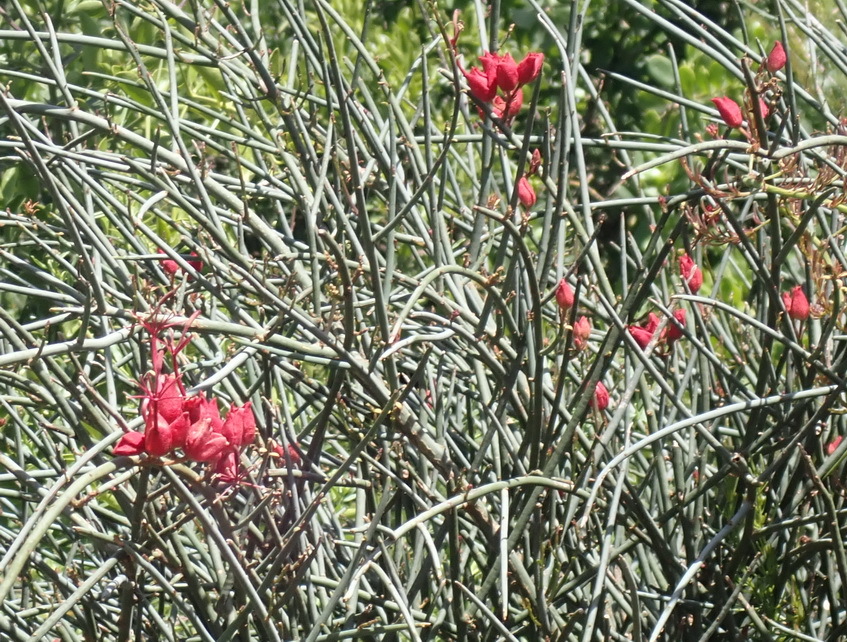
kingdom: Plantae
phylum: Tracheophyta
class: Magnoliopsida
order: Brassicales
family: Capparaceae
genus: Cadaba
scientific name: Cadaba aphylla
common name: Black storm
